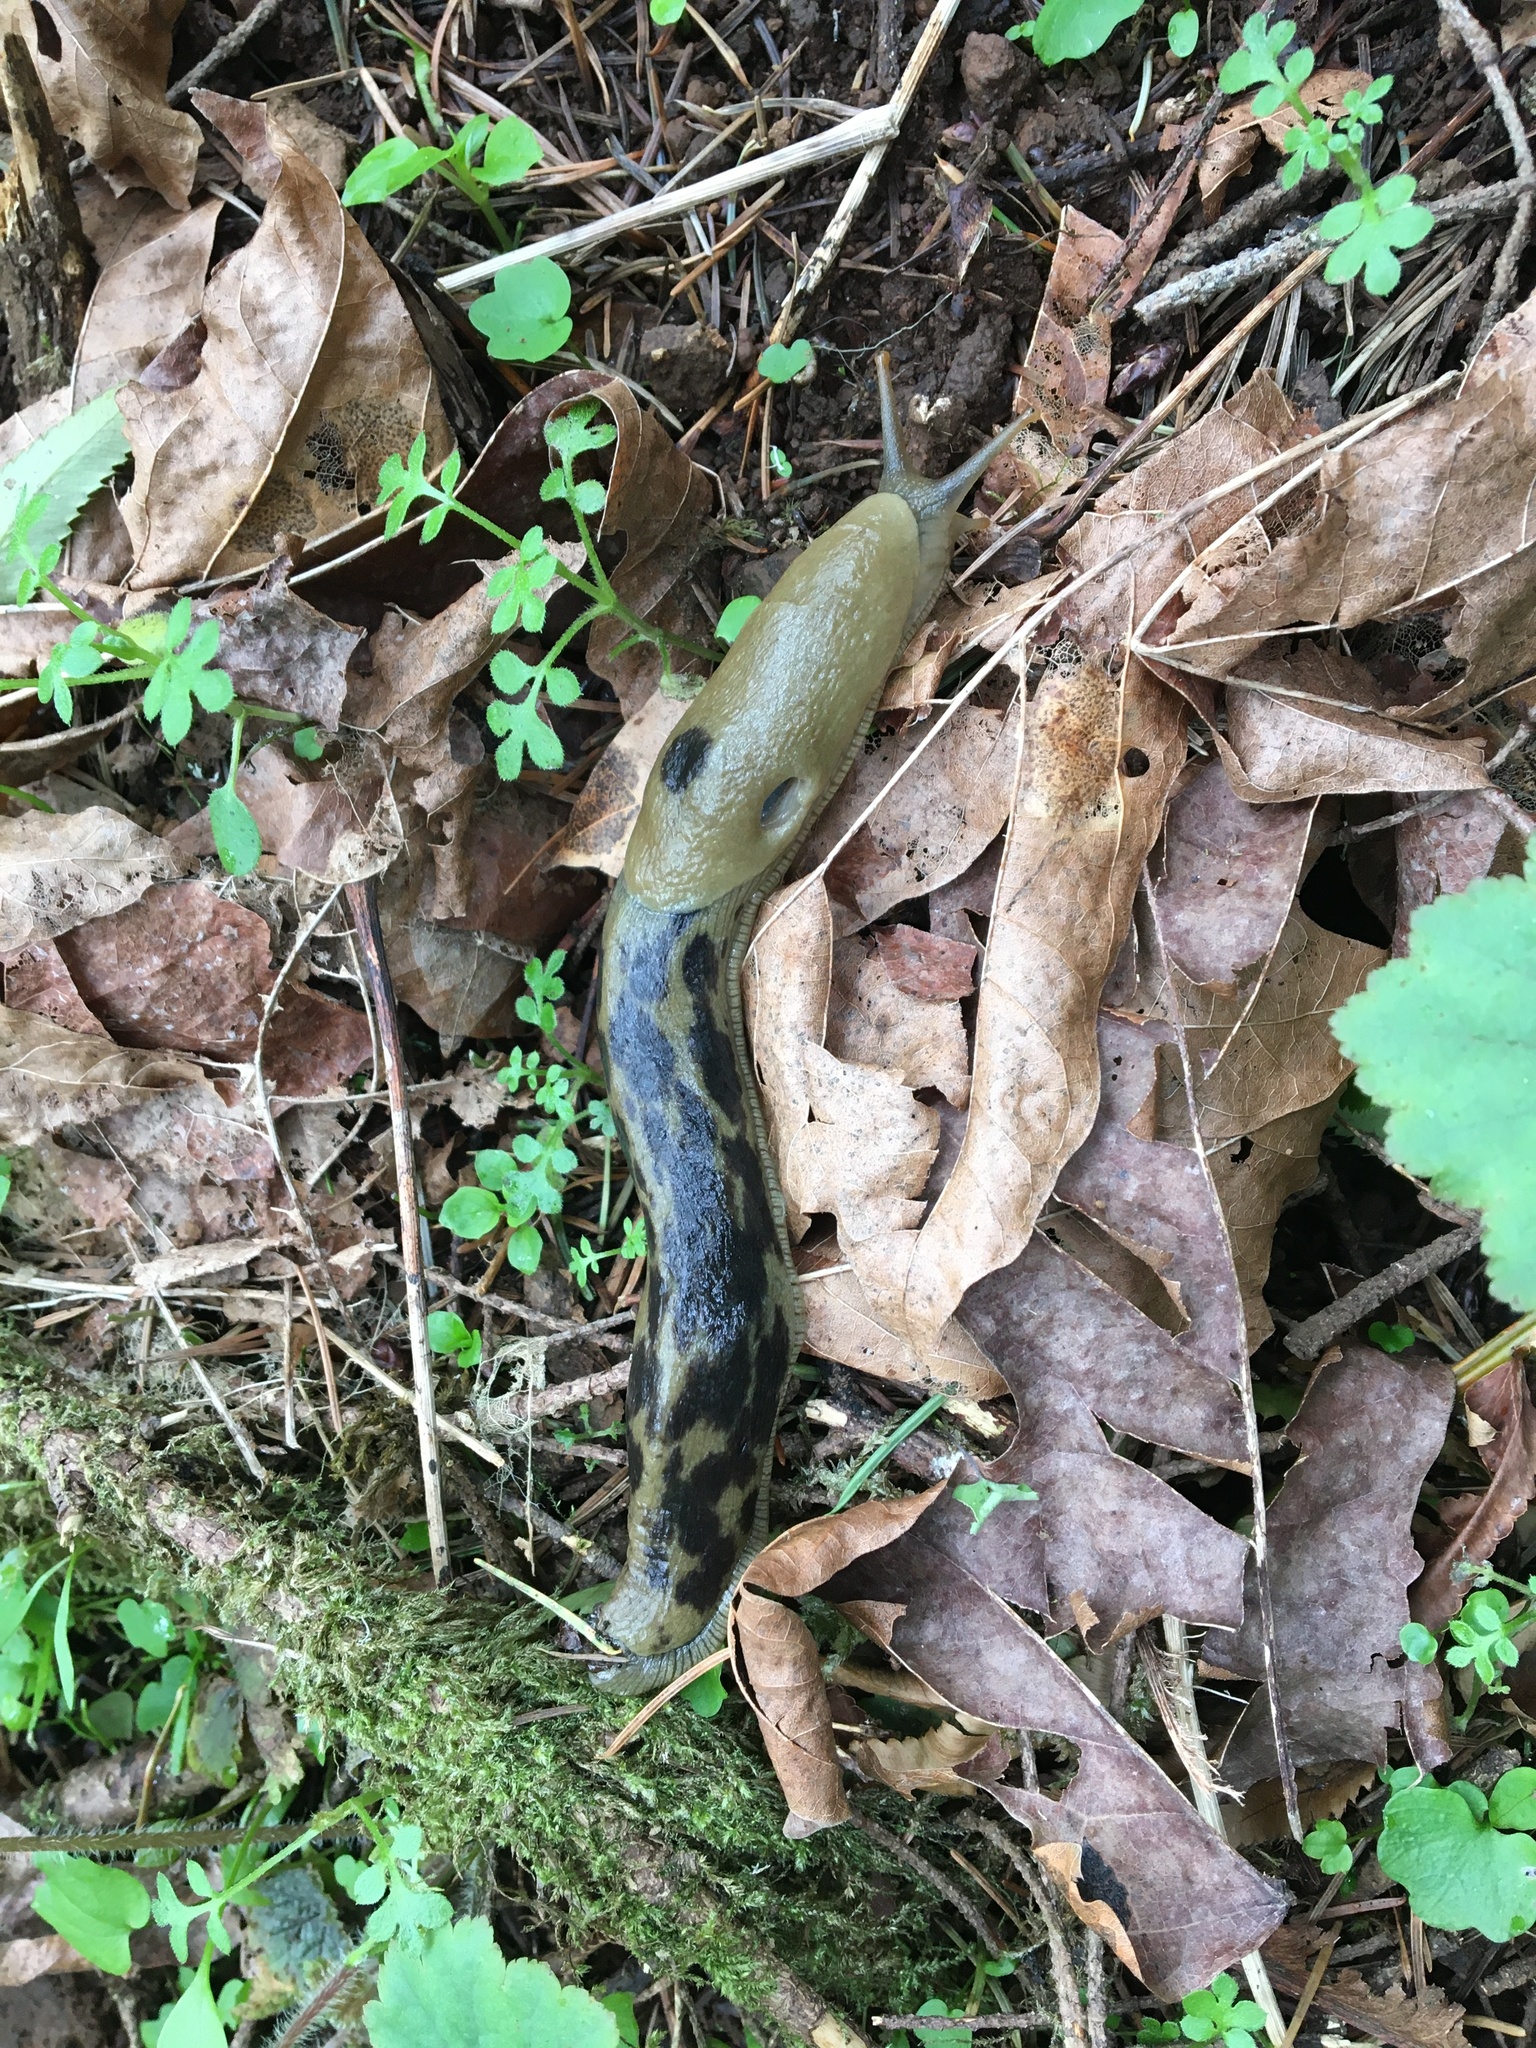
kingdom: Animalia
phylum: Mollusca
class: Gastropoda
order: Stylommatophora
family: Ariolimacidae
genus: Ariolimax
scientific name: Ariolimax columbianus
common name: Pacific banana slug
